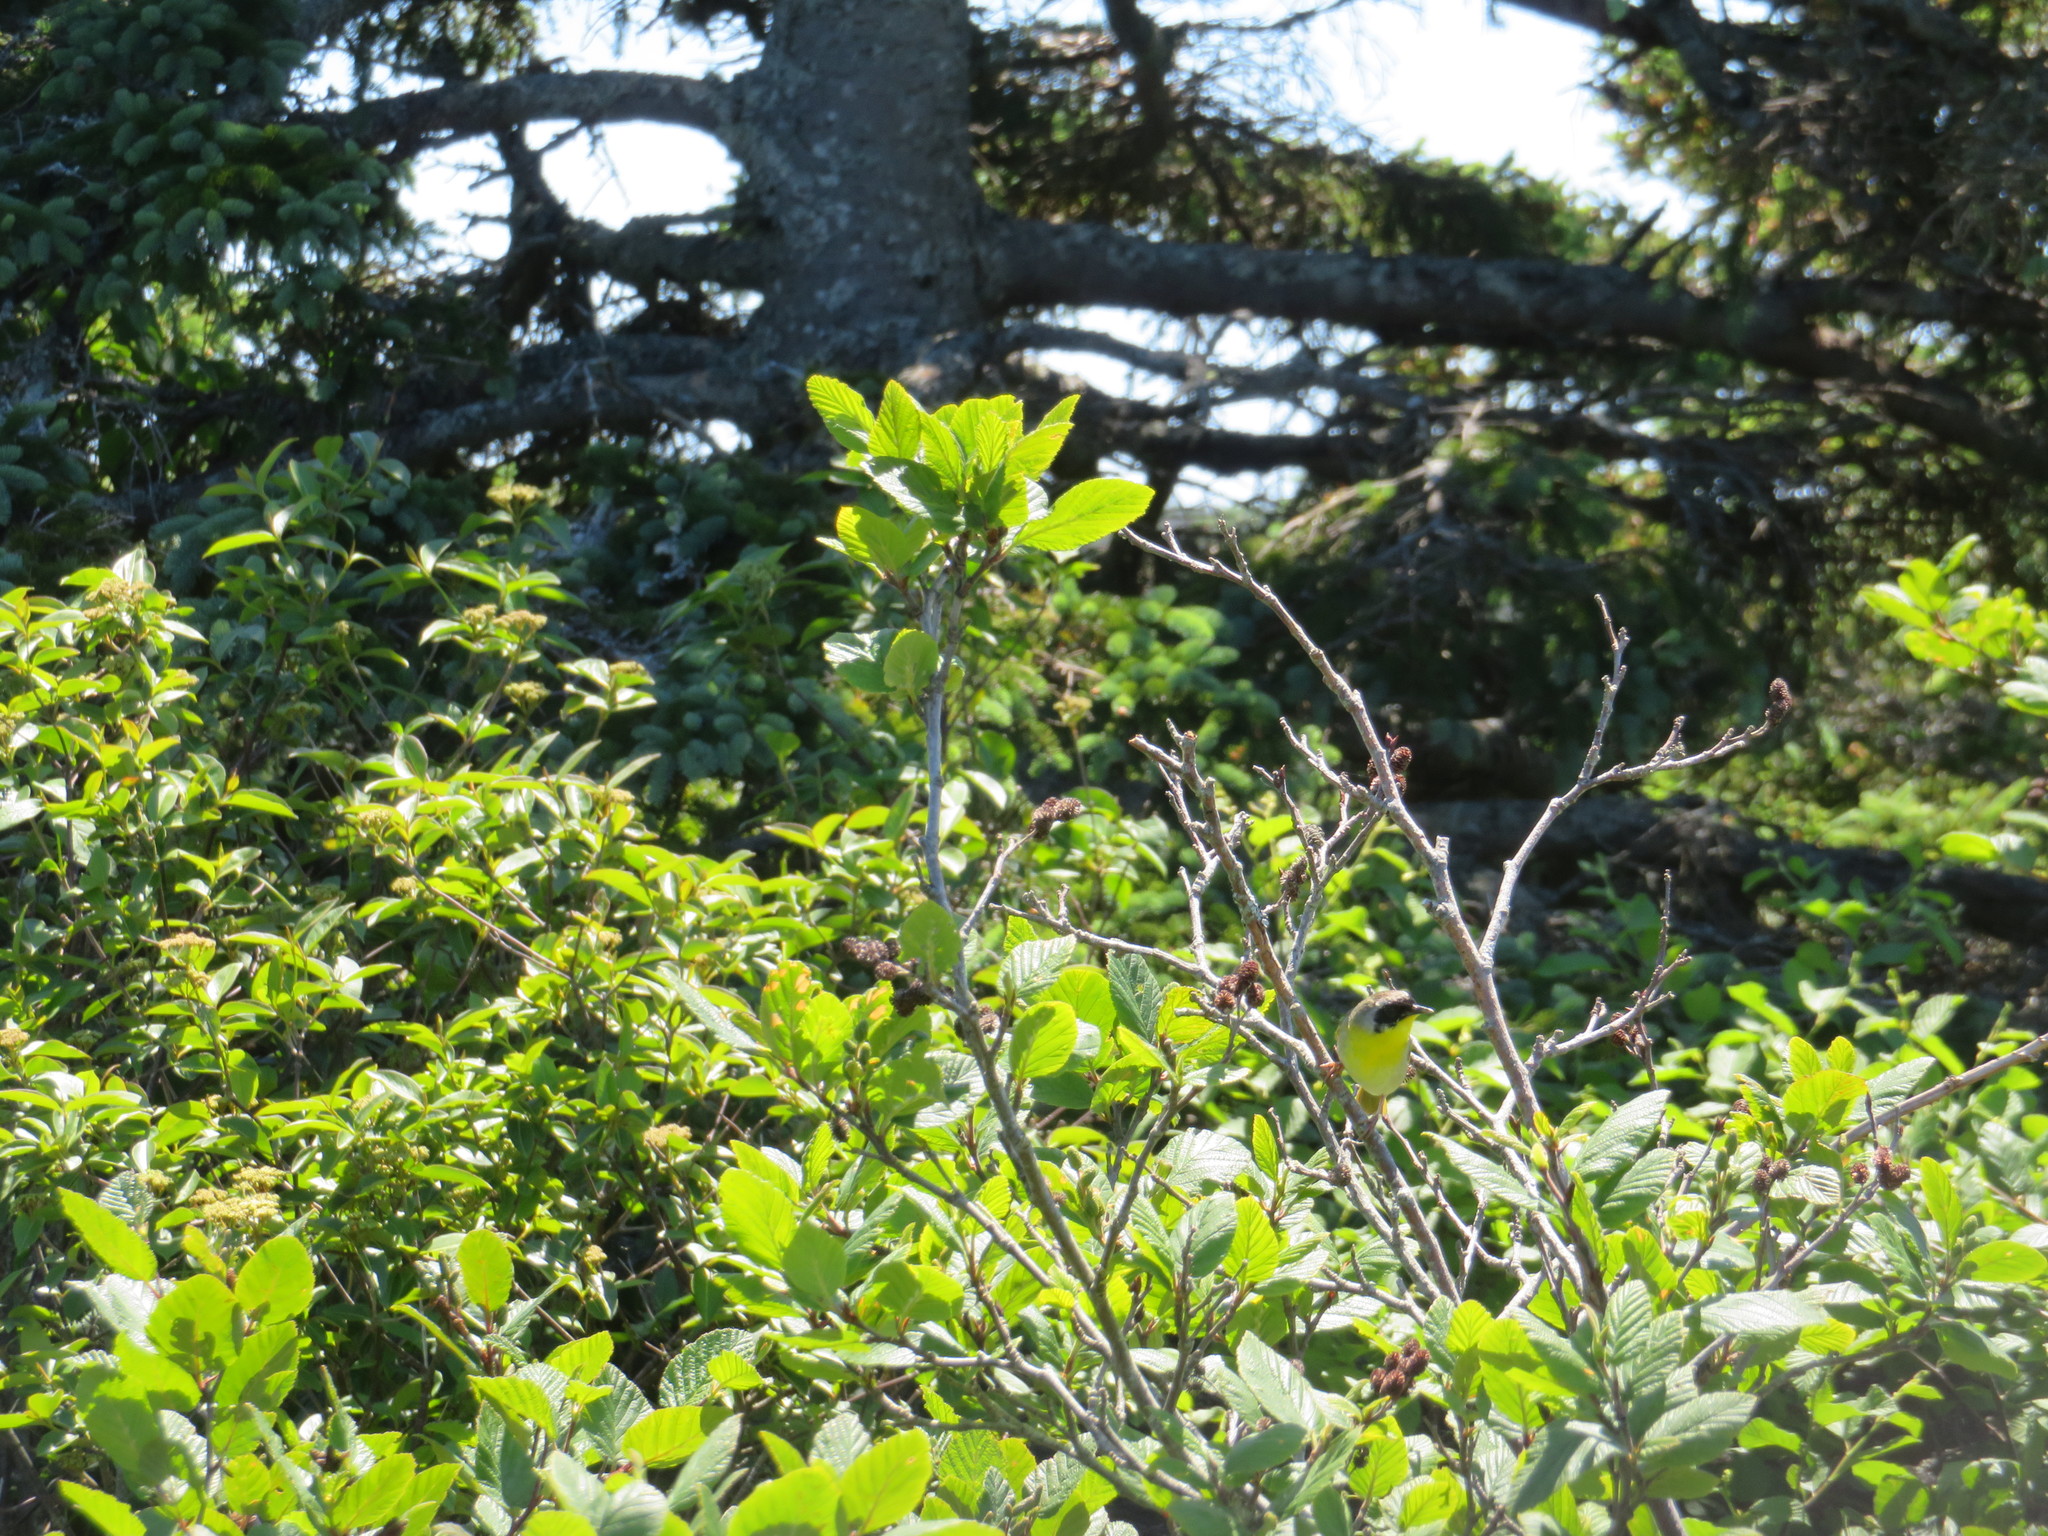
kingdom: Animalia
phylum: Chordata
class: Aves
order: Passeriformes
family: Parulidae
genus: Geothlypis
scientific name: Geothlypis trichas
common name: Common yellowthroat
